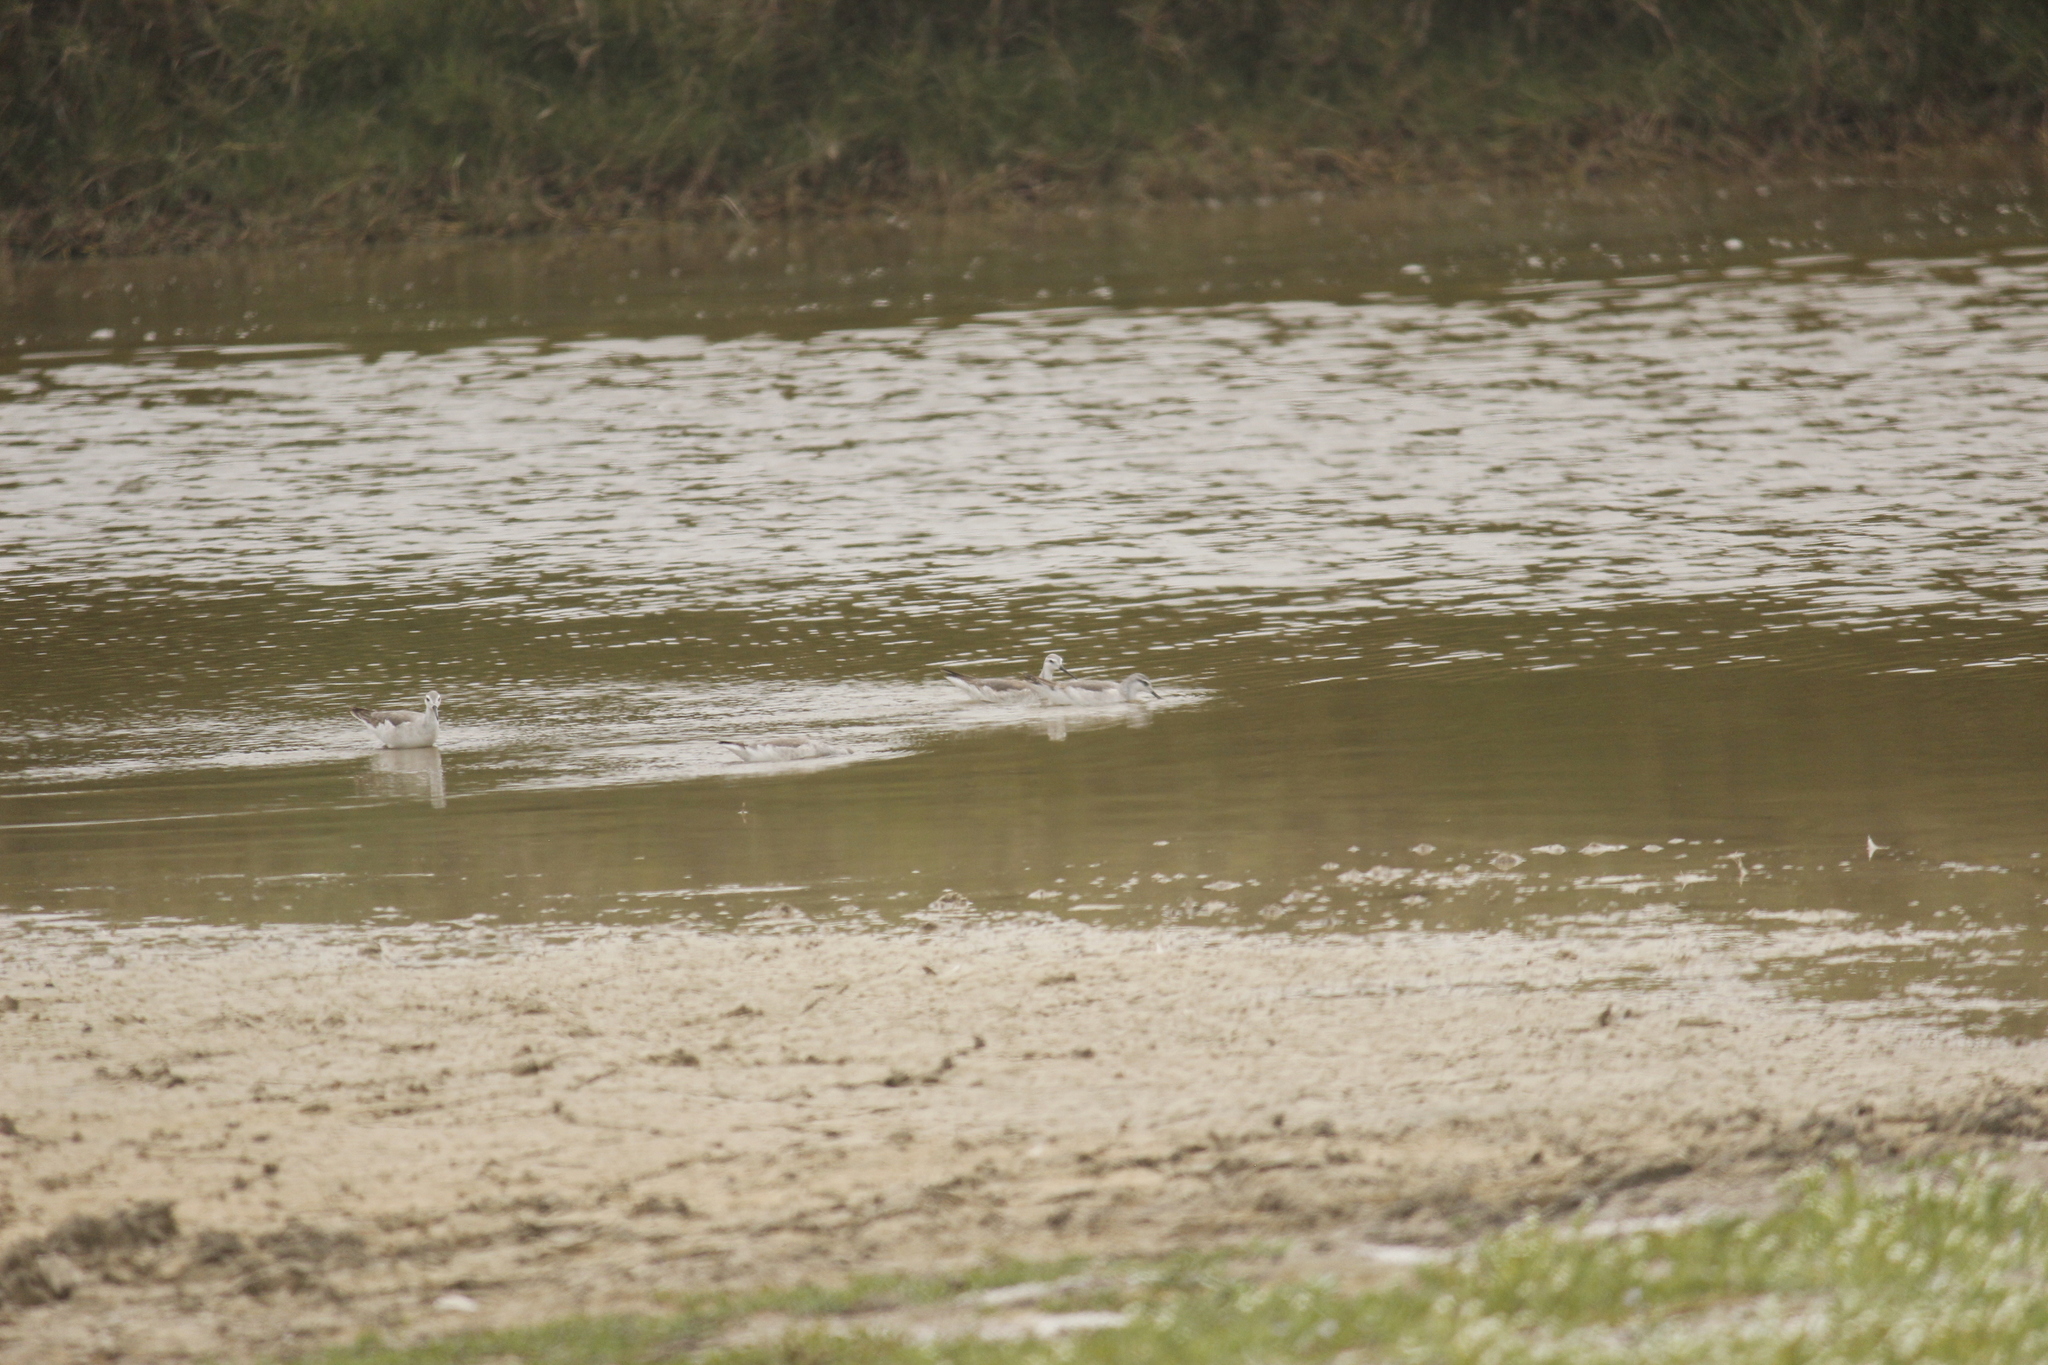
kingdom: Animalia
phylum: Chordata
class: Aves
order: Charadriiformes
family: Scolopacidae
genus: Phalaropus
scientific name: Phalaropus tricolor
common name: Wilson's phalarope
